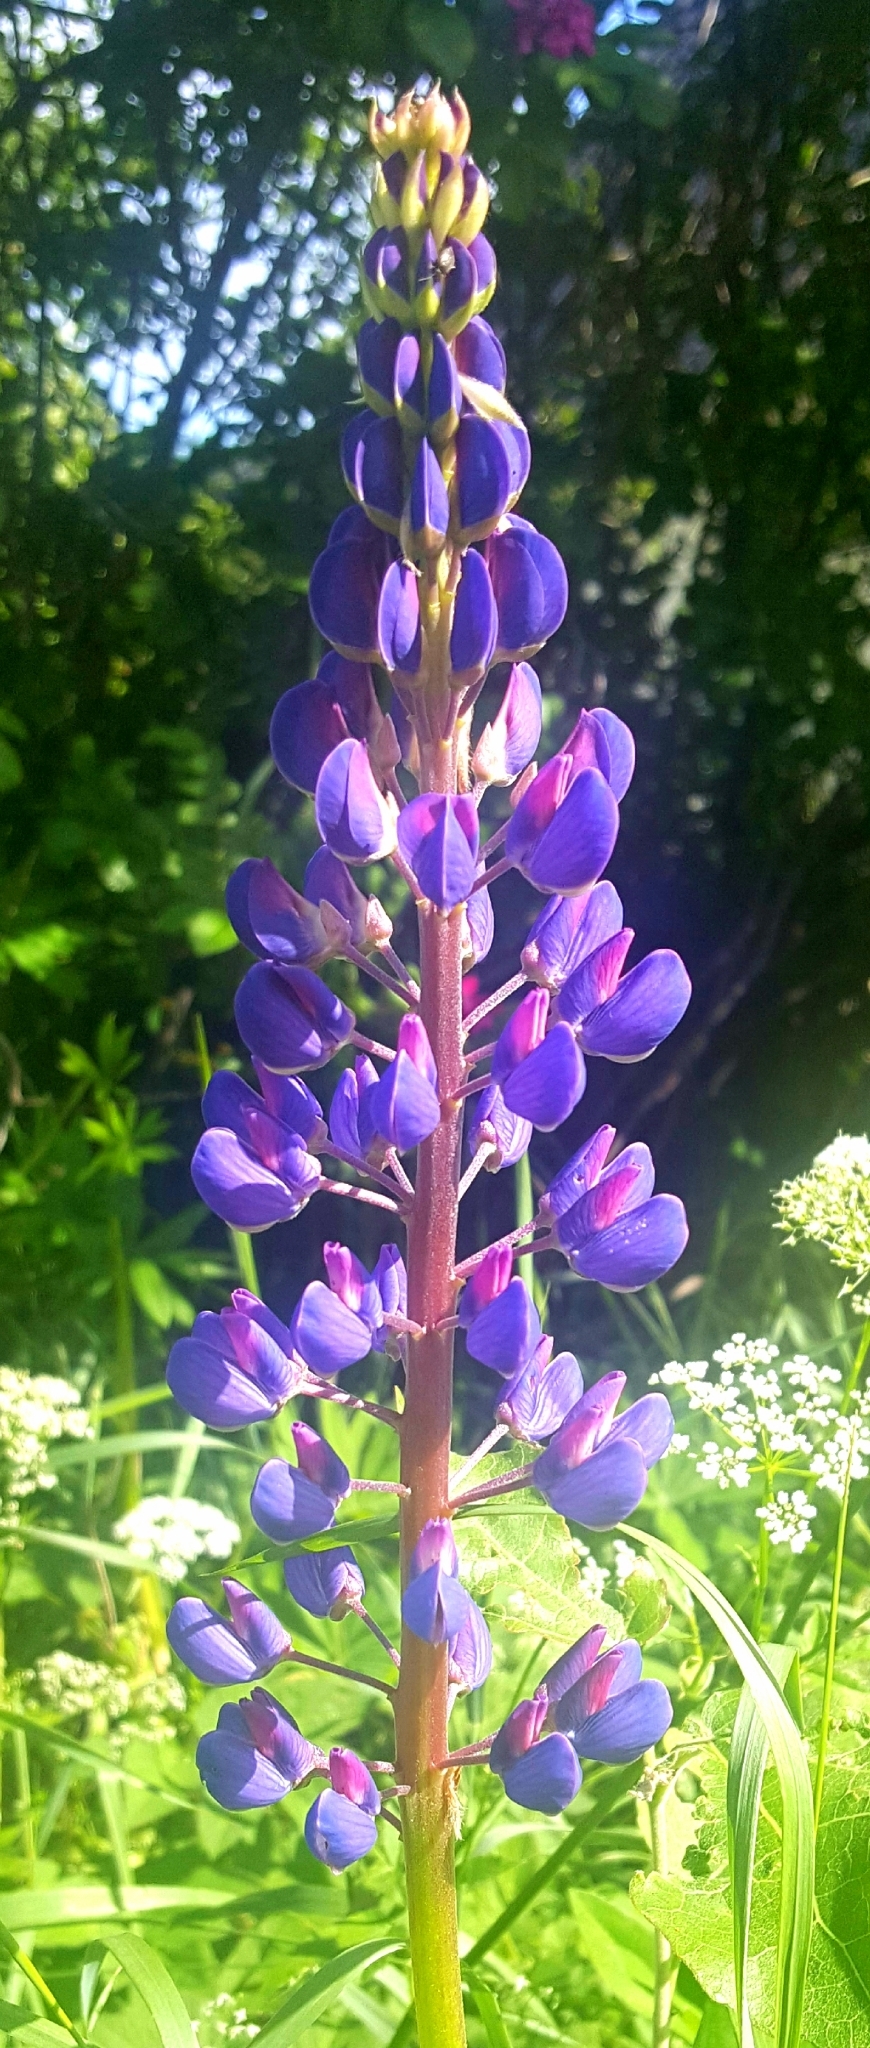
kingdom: Plantae
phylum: Tracheophyta
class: Magnoliopsida
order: Fabales
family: Fabaceae
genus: Lupinus
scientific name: Lupinus polyphyllus
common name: Garden lupin
